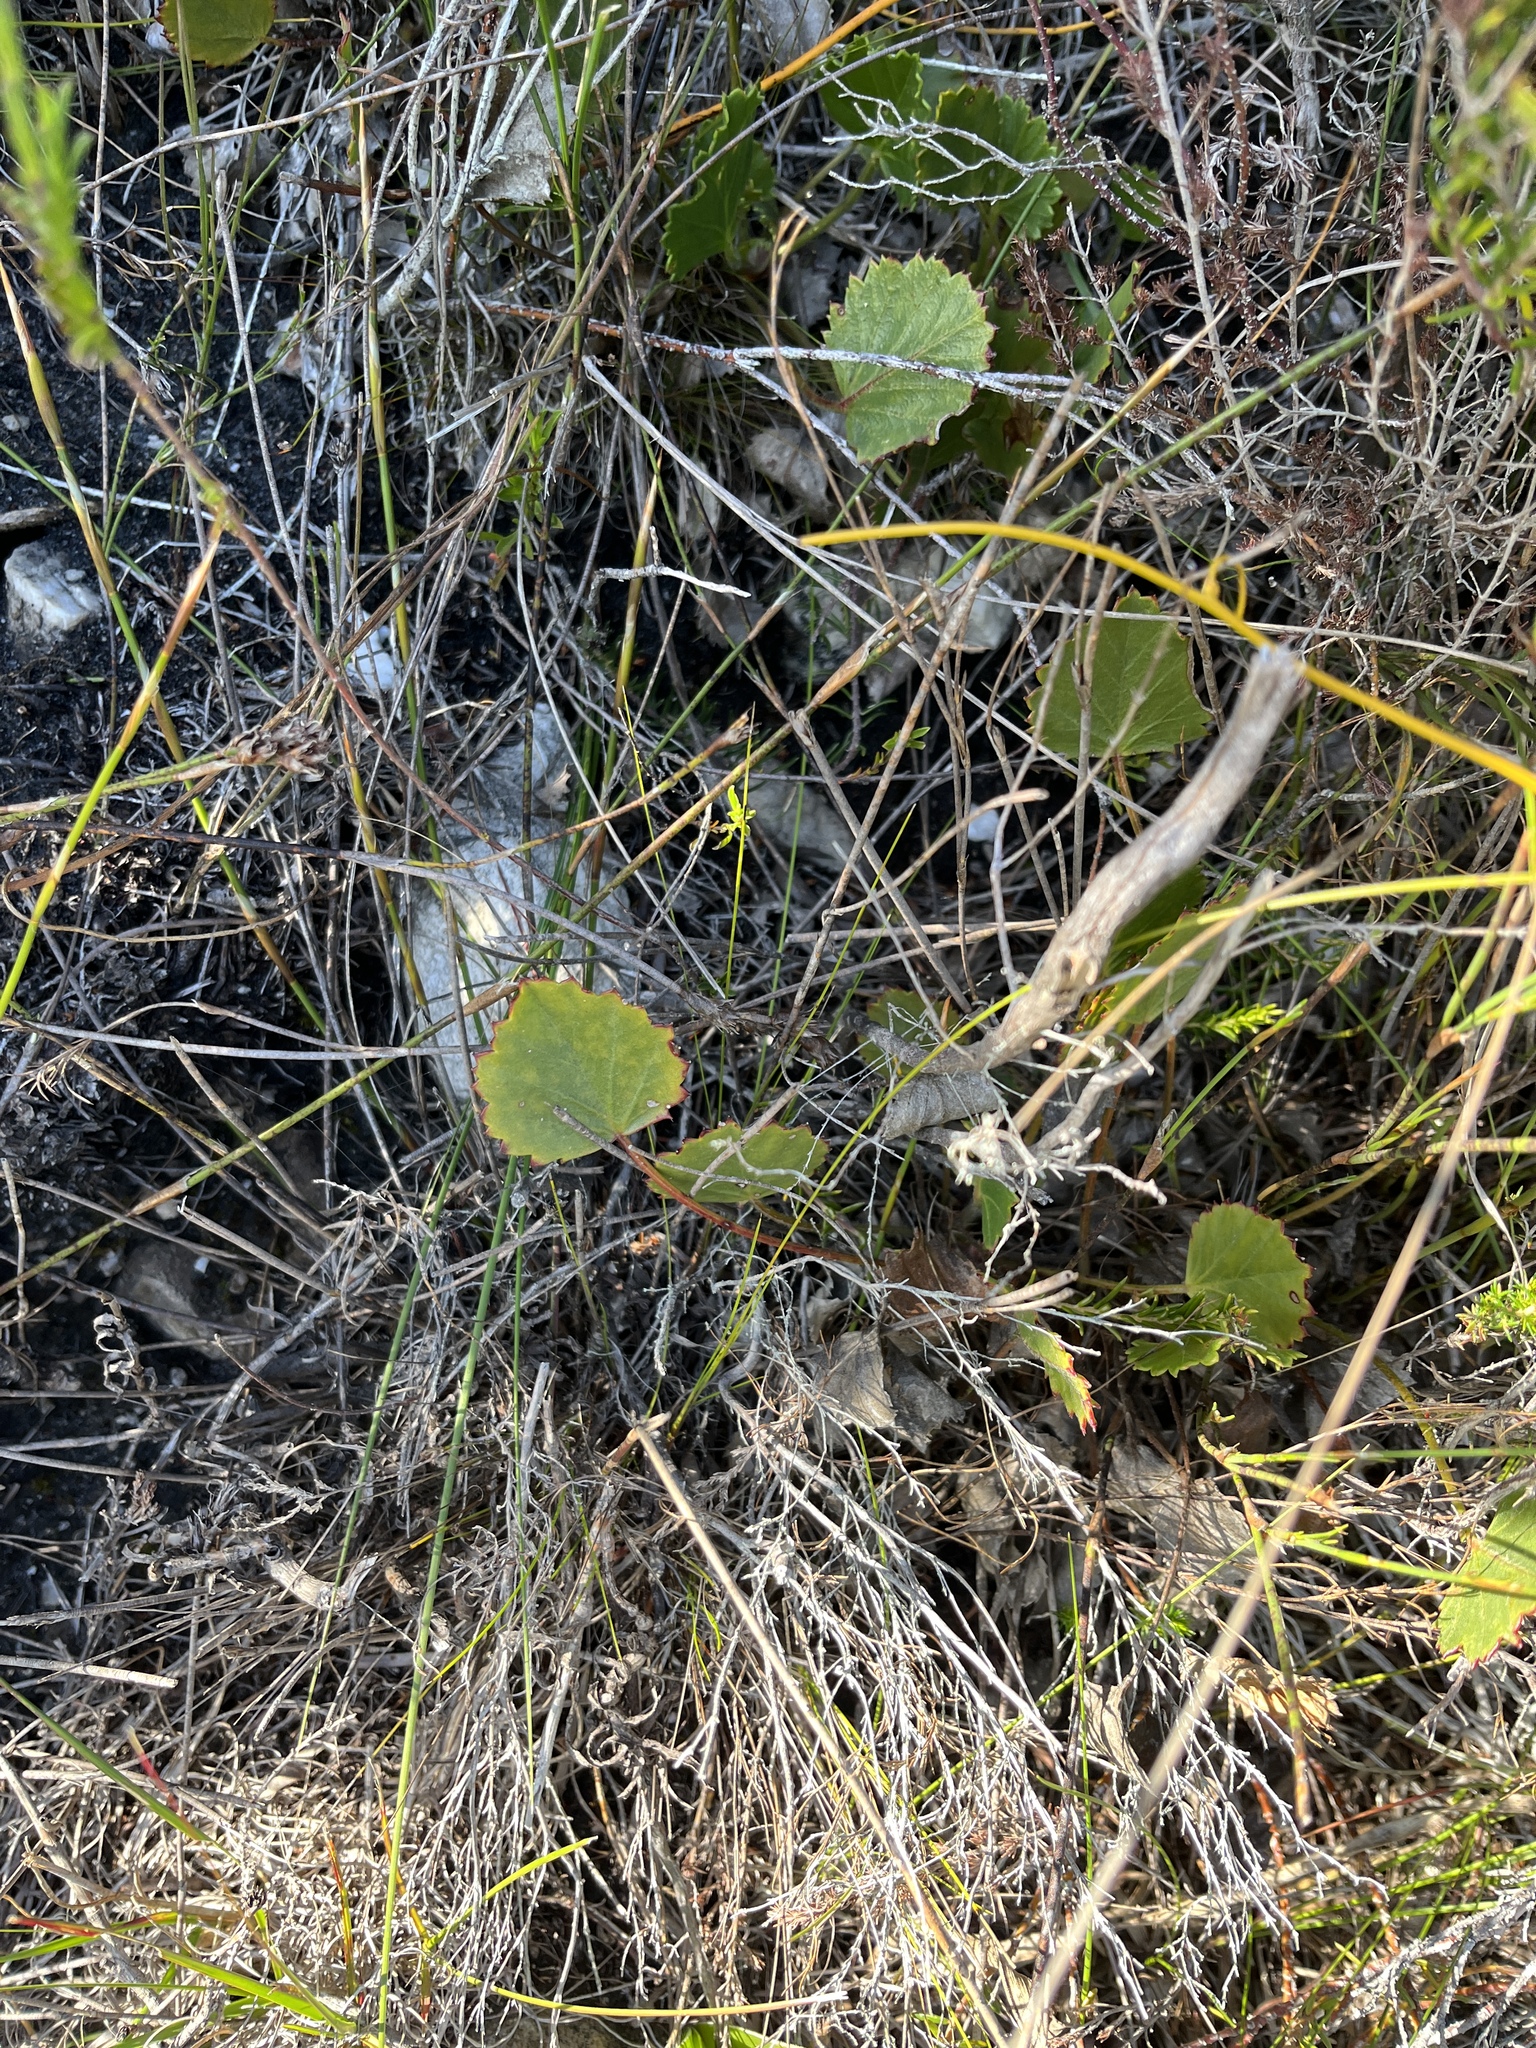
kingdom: Plantae
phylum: Tracheophyta
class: Magnoliopsida
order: Geraniales
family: Geraniaceae
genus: Pelargonium
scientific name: Pelargonium elegans
